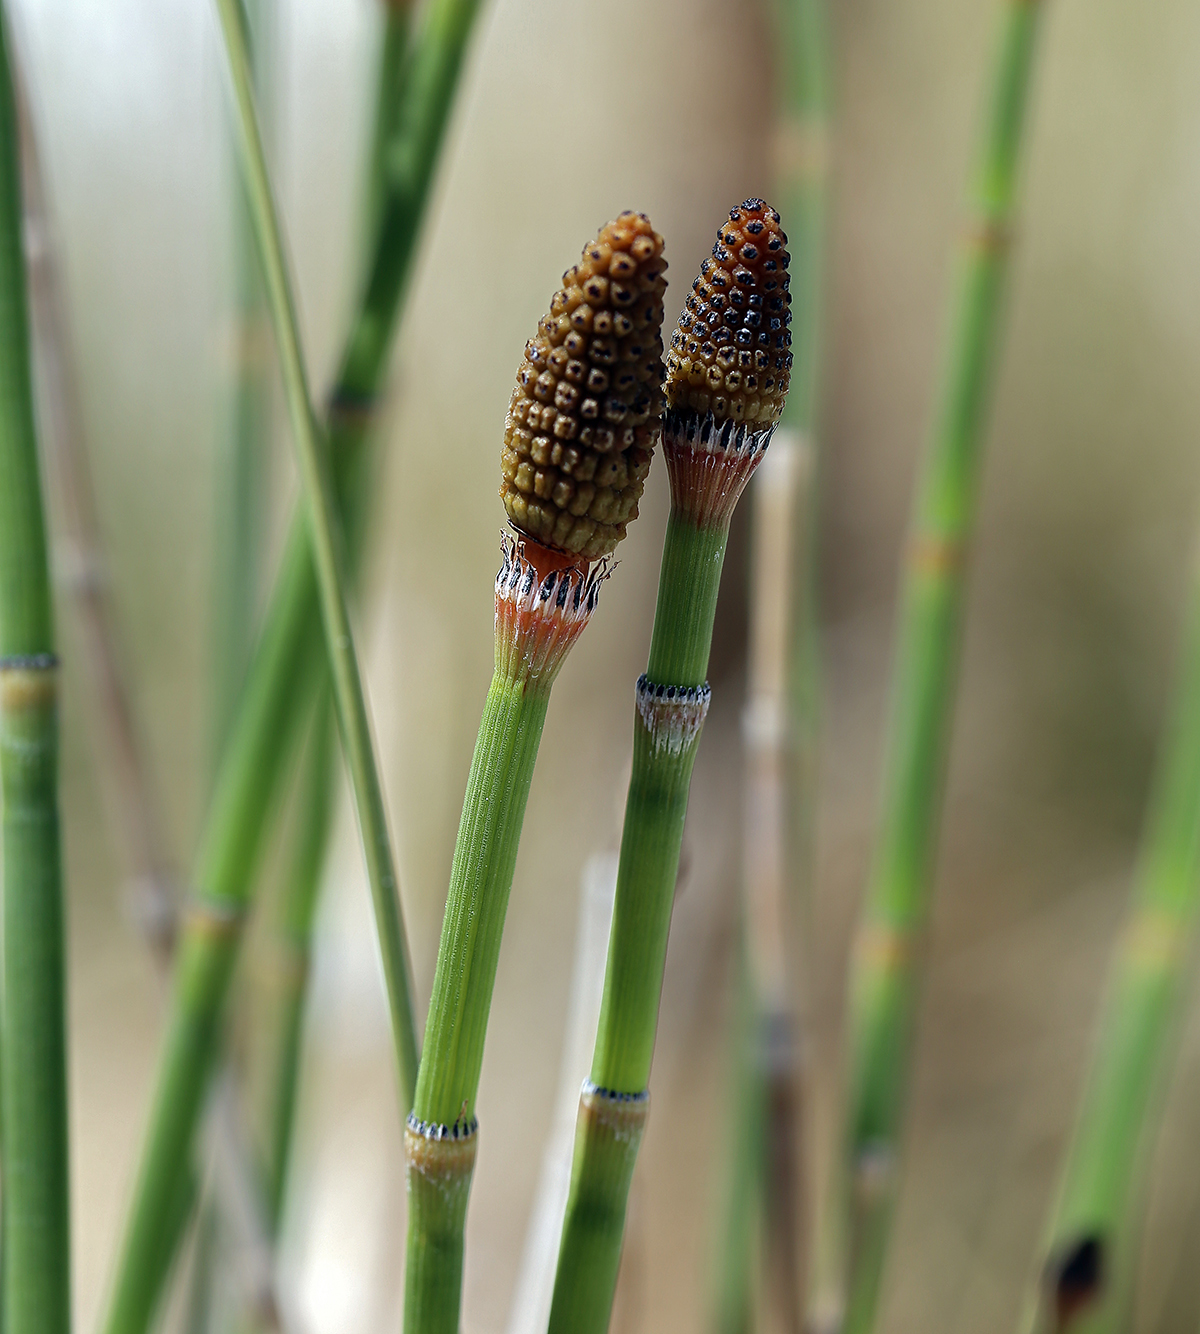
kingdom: Plantae
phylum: Tracheophyta
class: Polypodiopsida
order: Equisetales
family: Equisetaceae
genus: Equisetum
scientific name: Equisetum laevigatum
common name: Smooth scouring-rush
